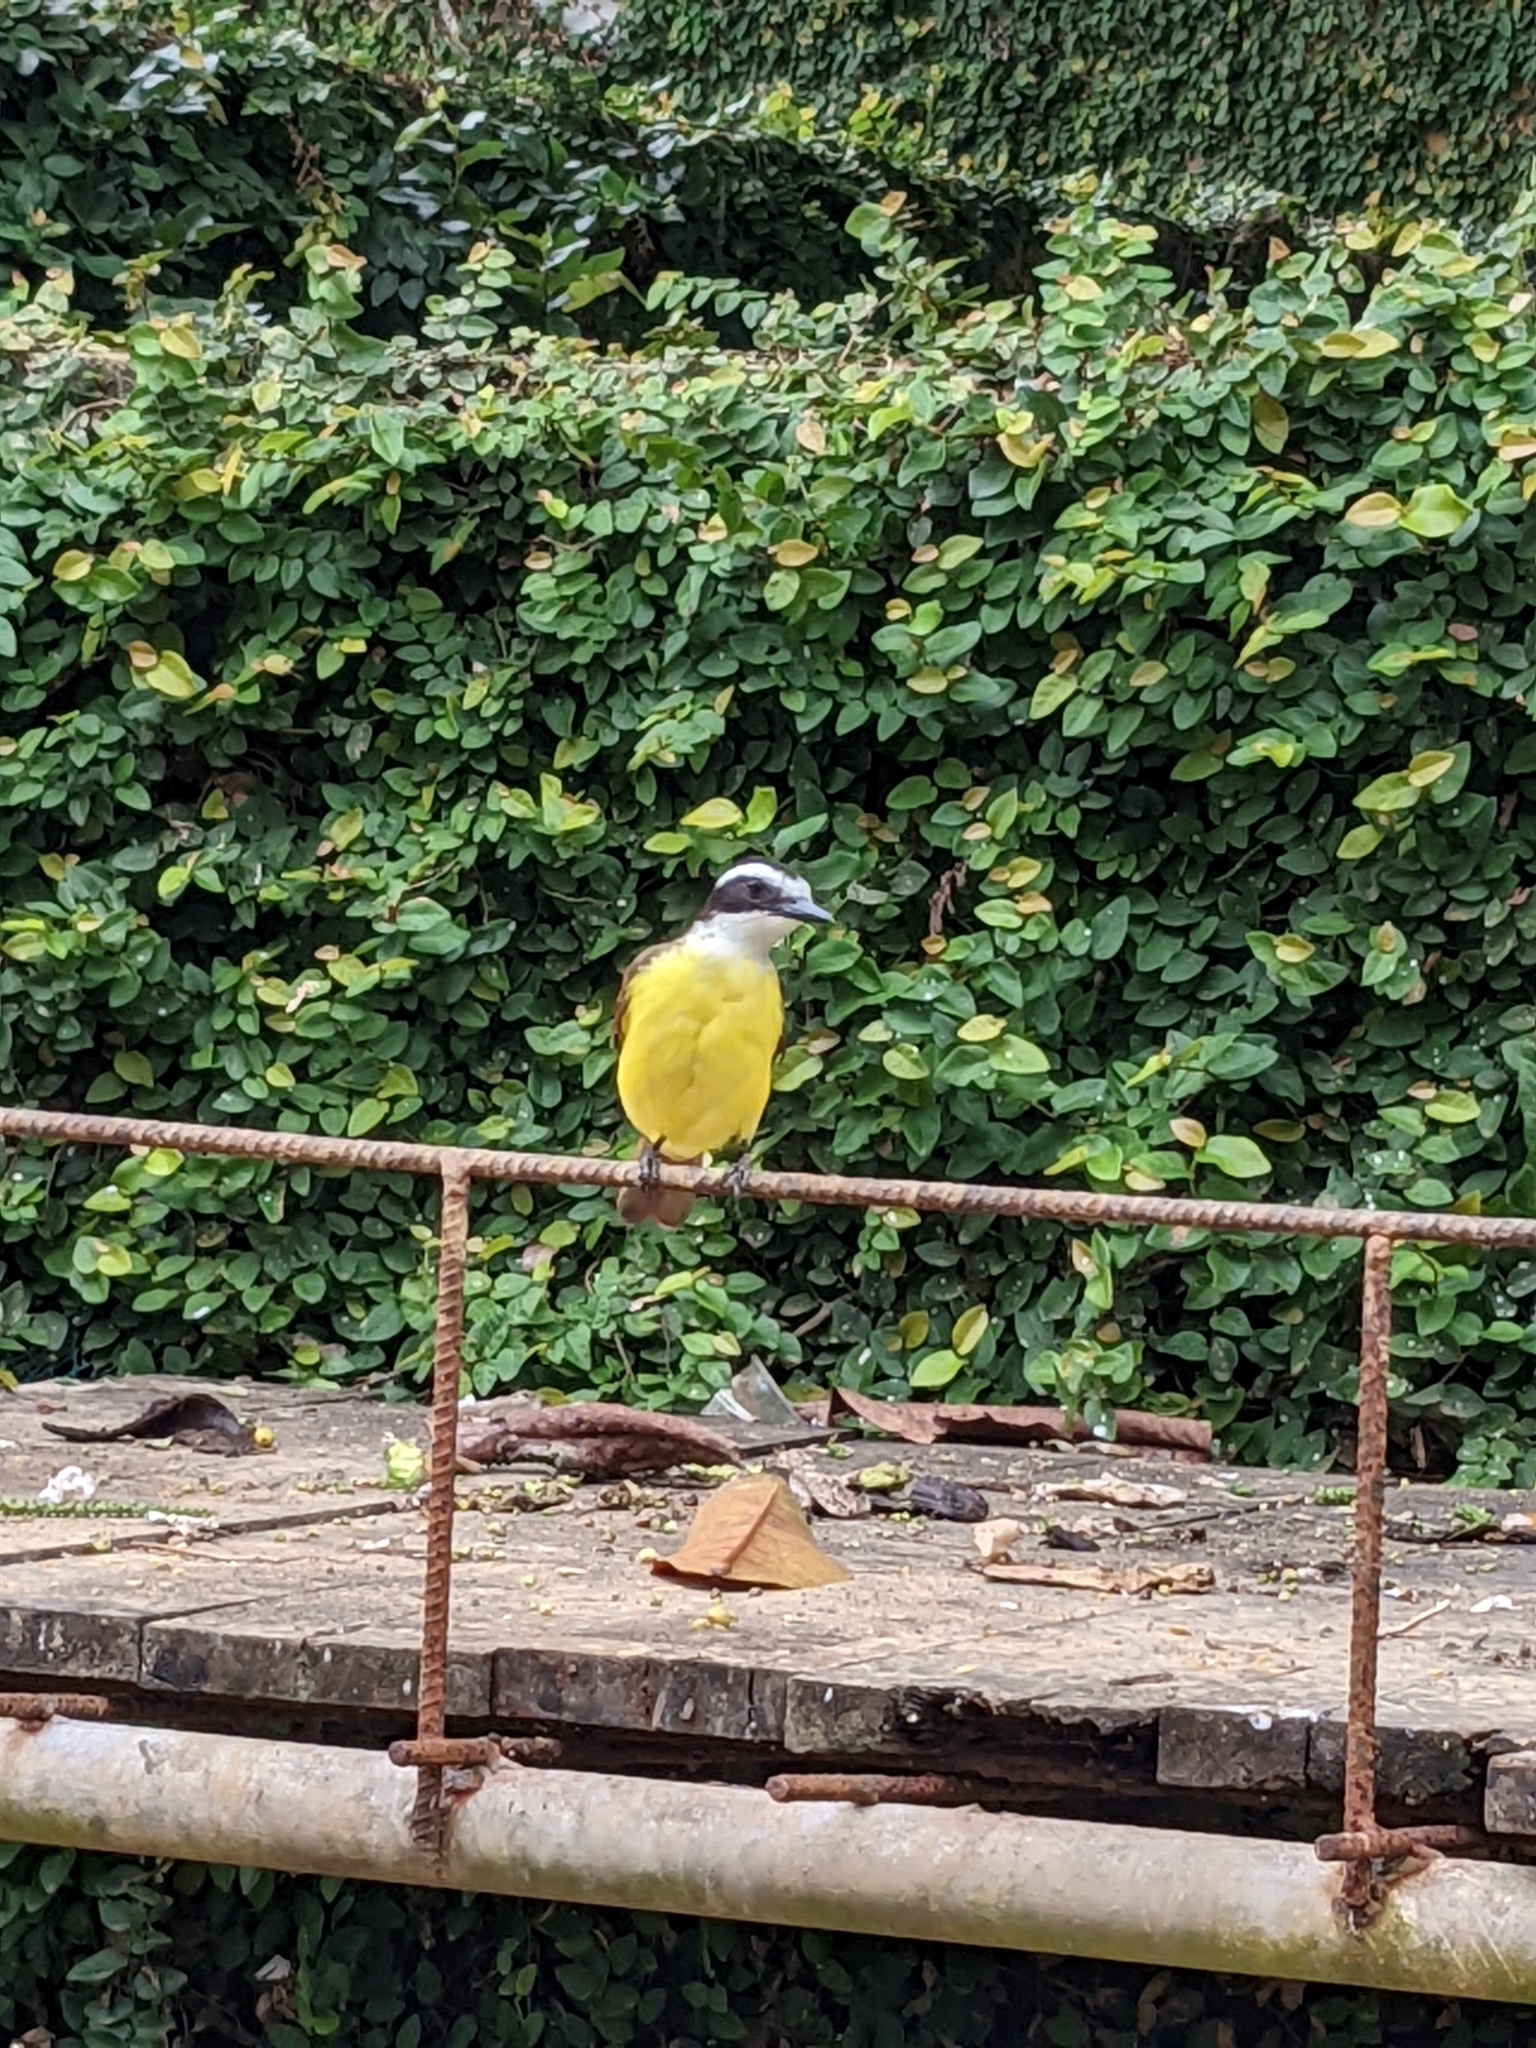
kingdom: Animalia
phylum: Chordata
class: Aves
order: Passeriformes
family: Tyrannidae
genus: Pitangus
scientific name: Pitangus sulphuratus
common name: Great kiskadee
